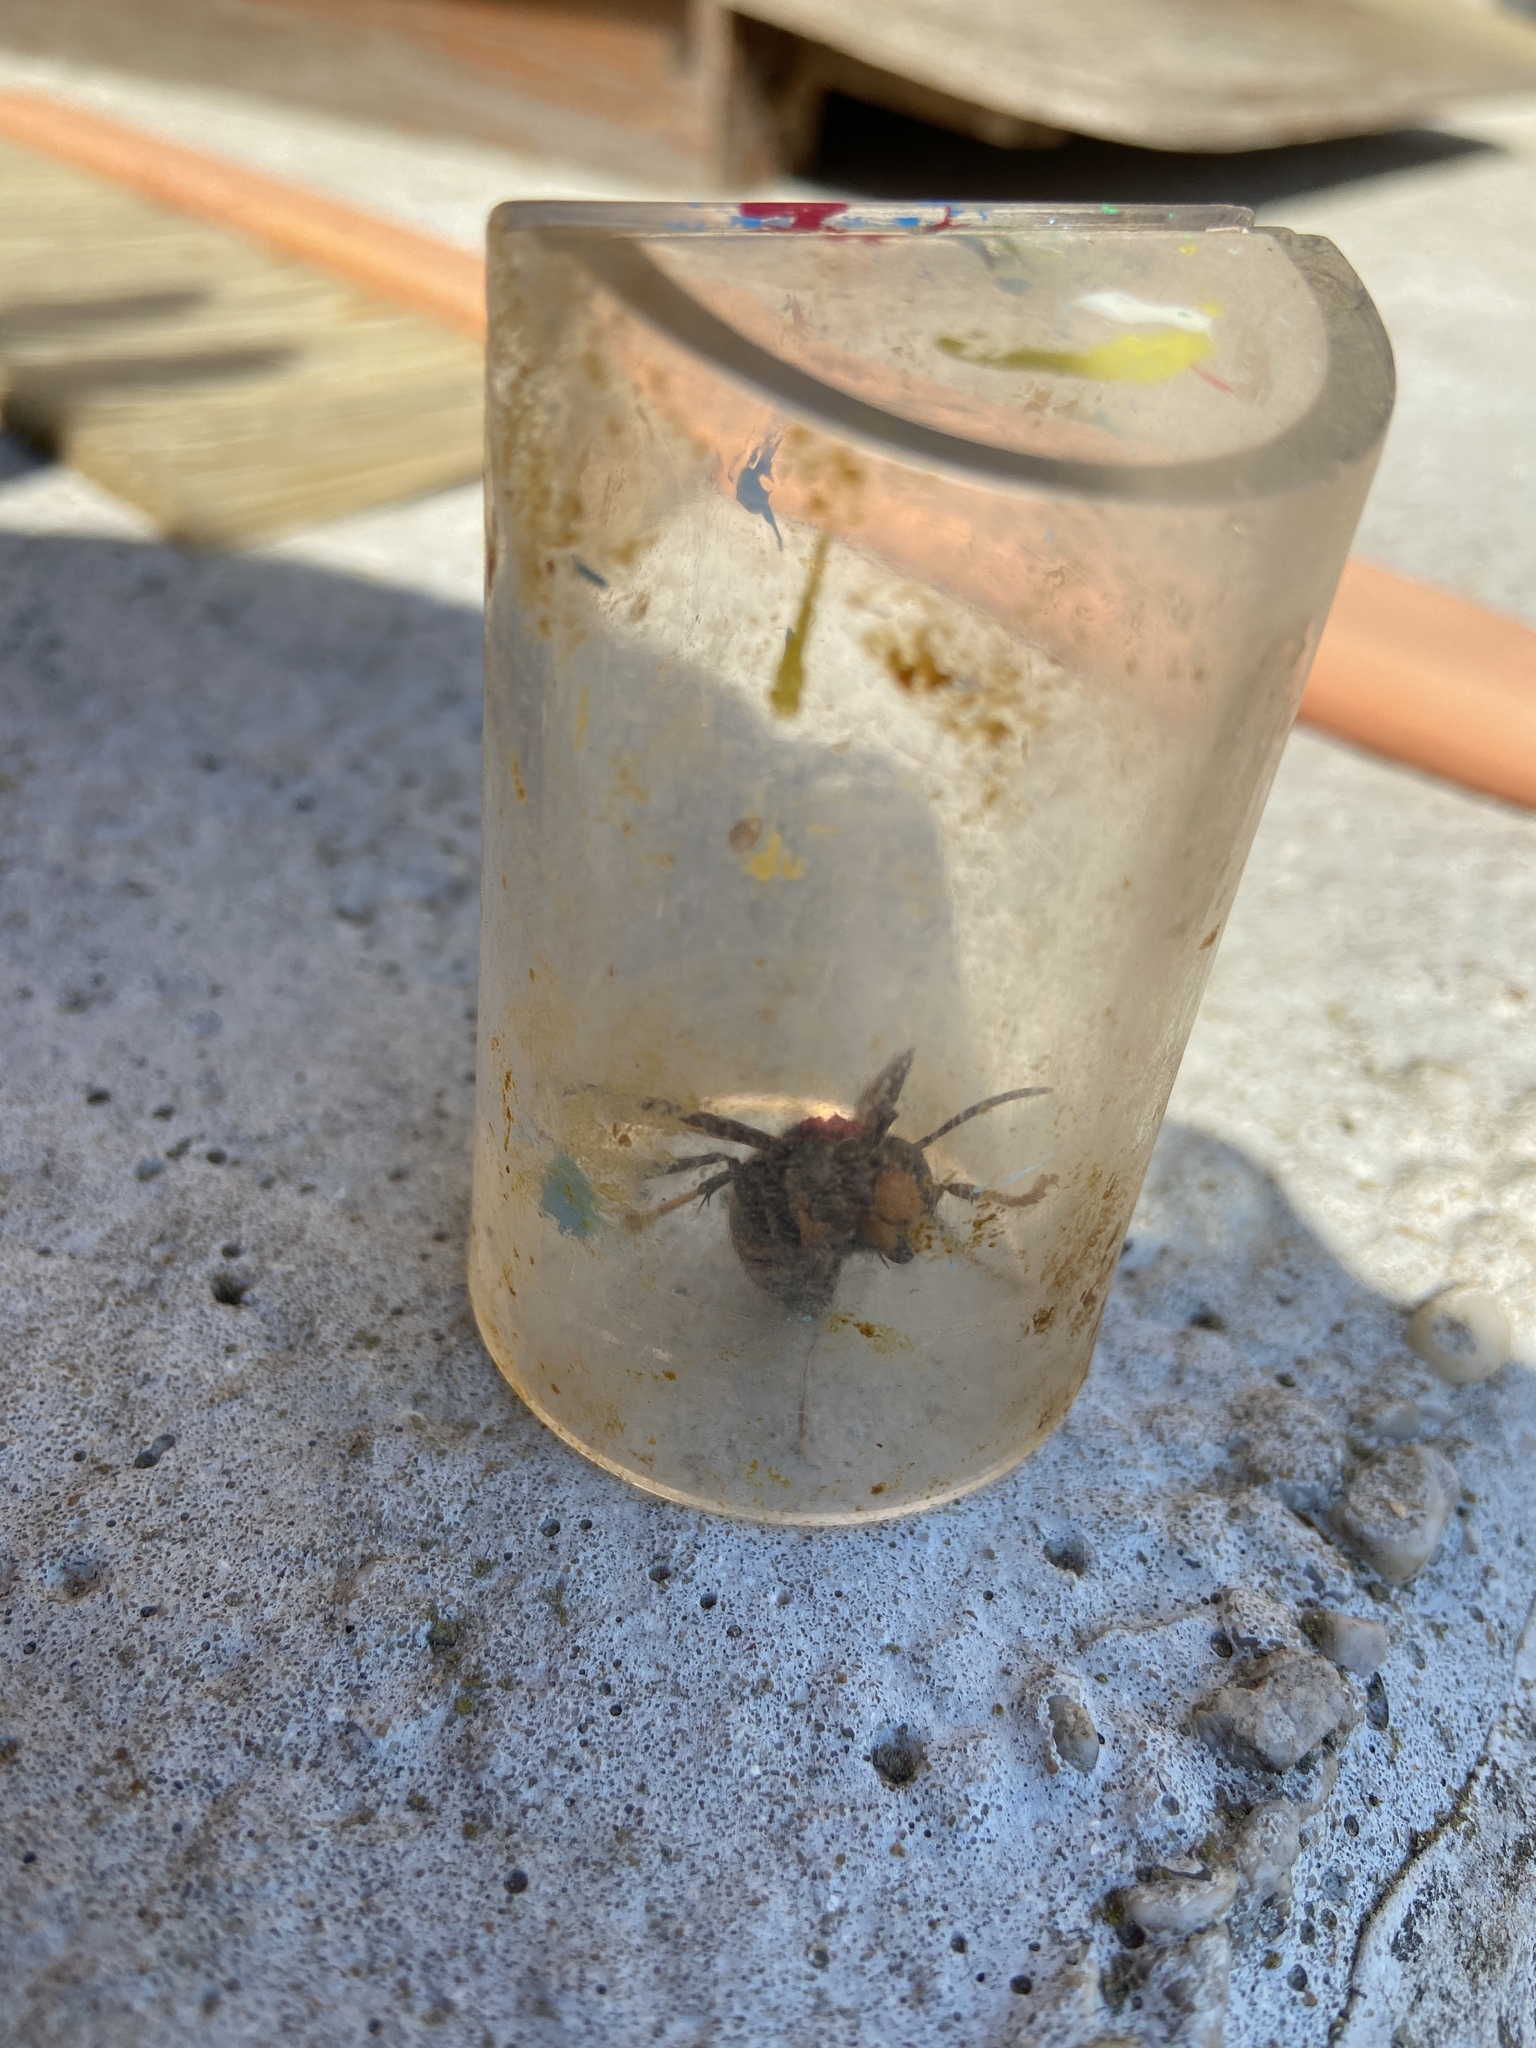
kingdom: Animalia
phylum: Arthropoda
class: Insecta
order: Hymenoptera
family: Vespidae
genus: Vespa
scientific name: Vespa velutina
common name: Asian hornet
